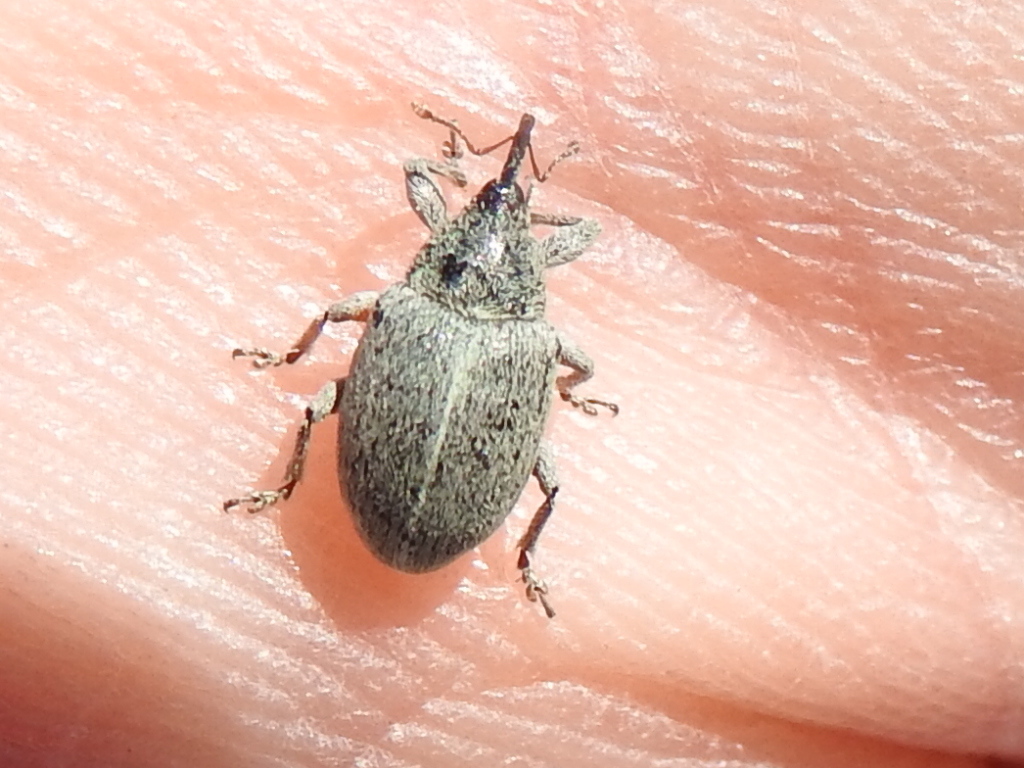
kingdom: Animalia
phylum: Arthropoda
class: Insecta
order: Coleoptera
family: Curculionidae
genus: Tychius
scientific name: Tychius sordidus
